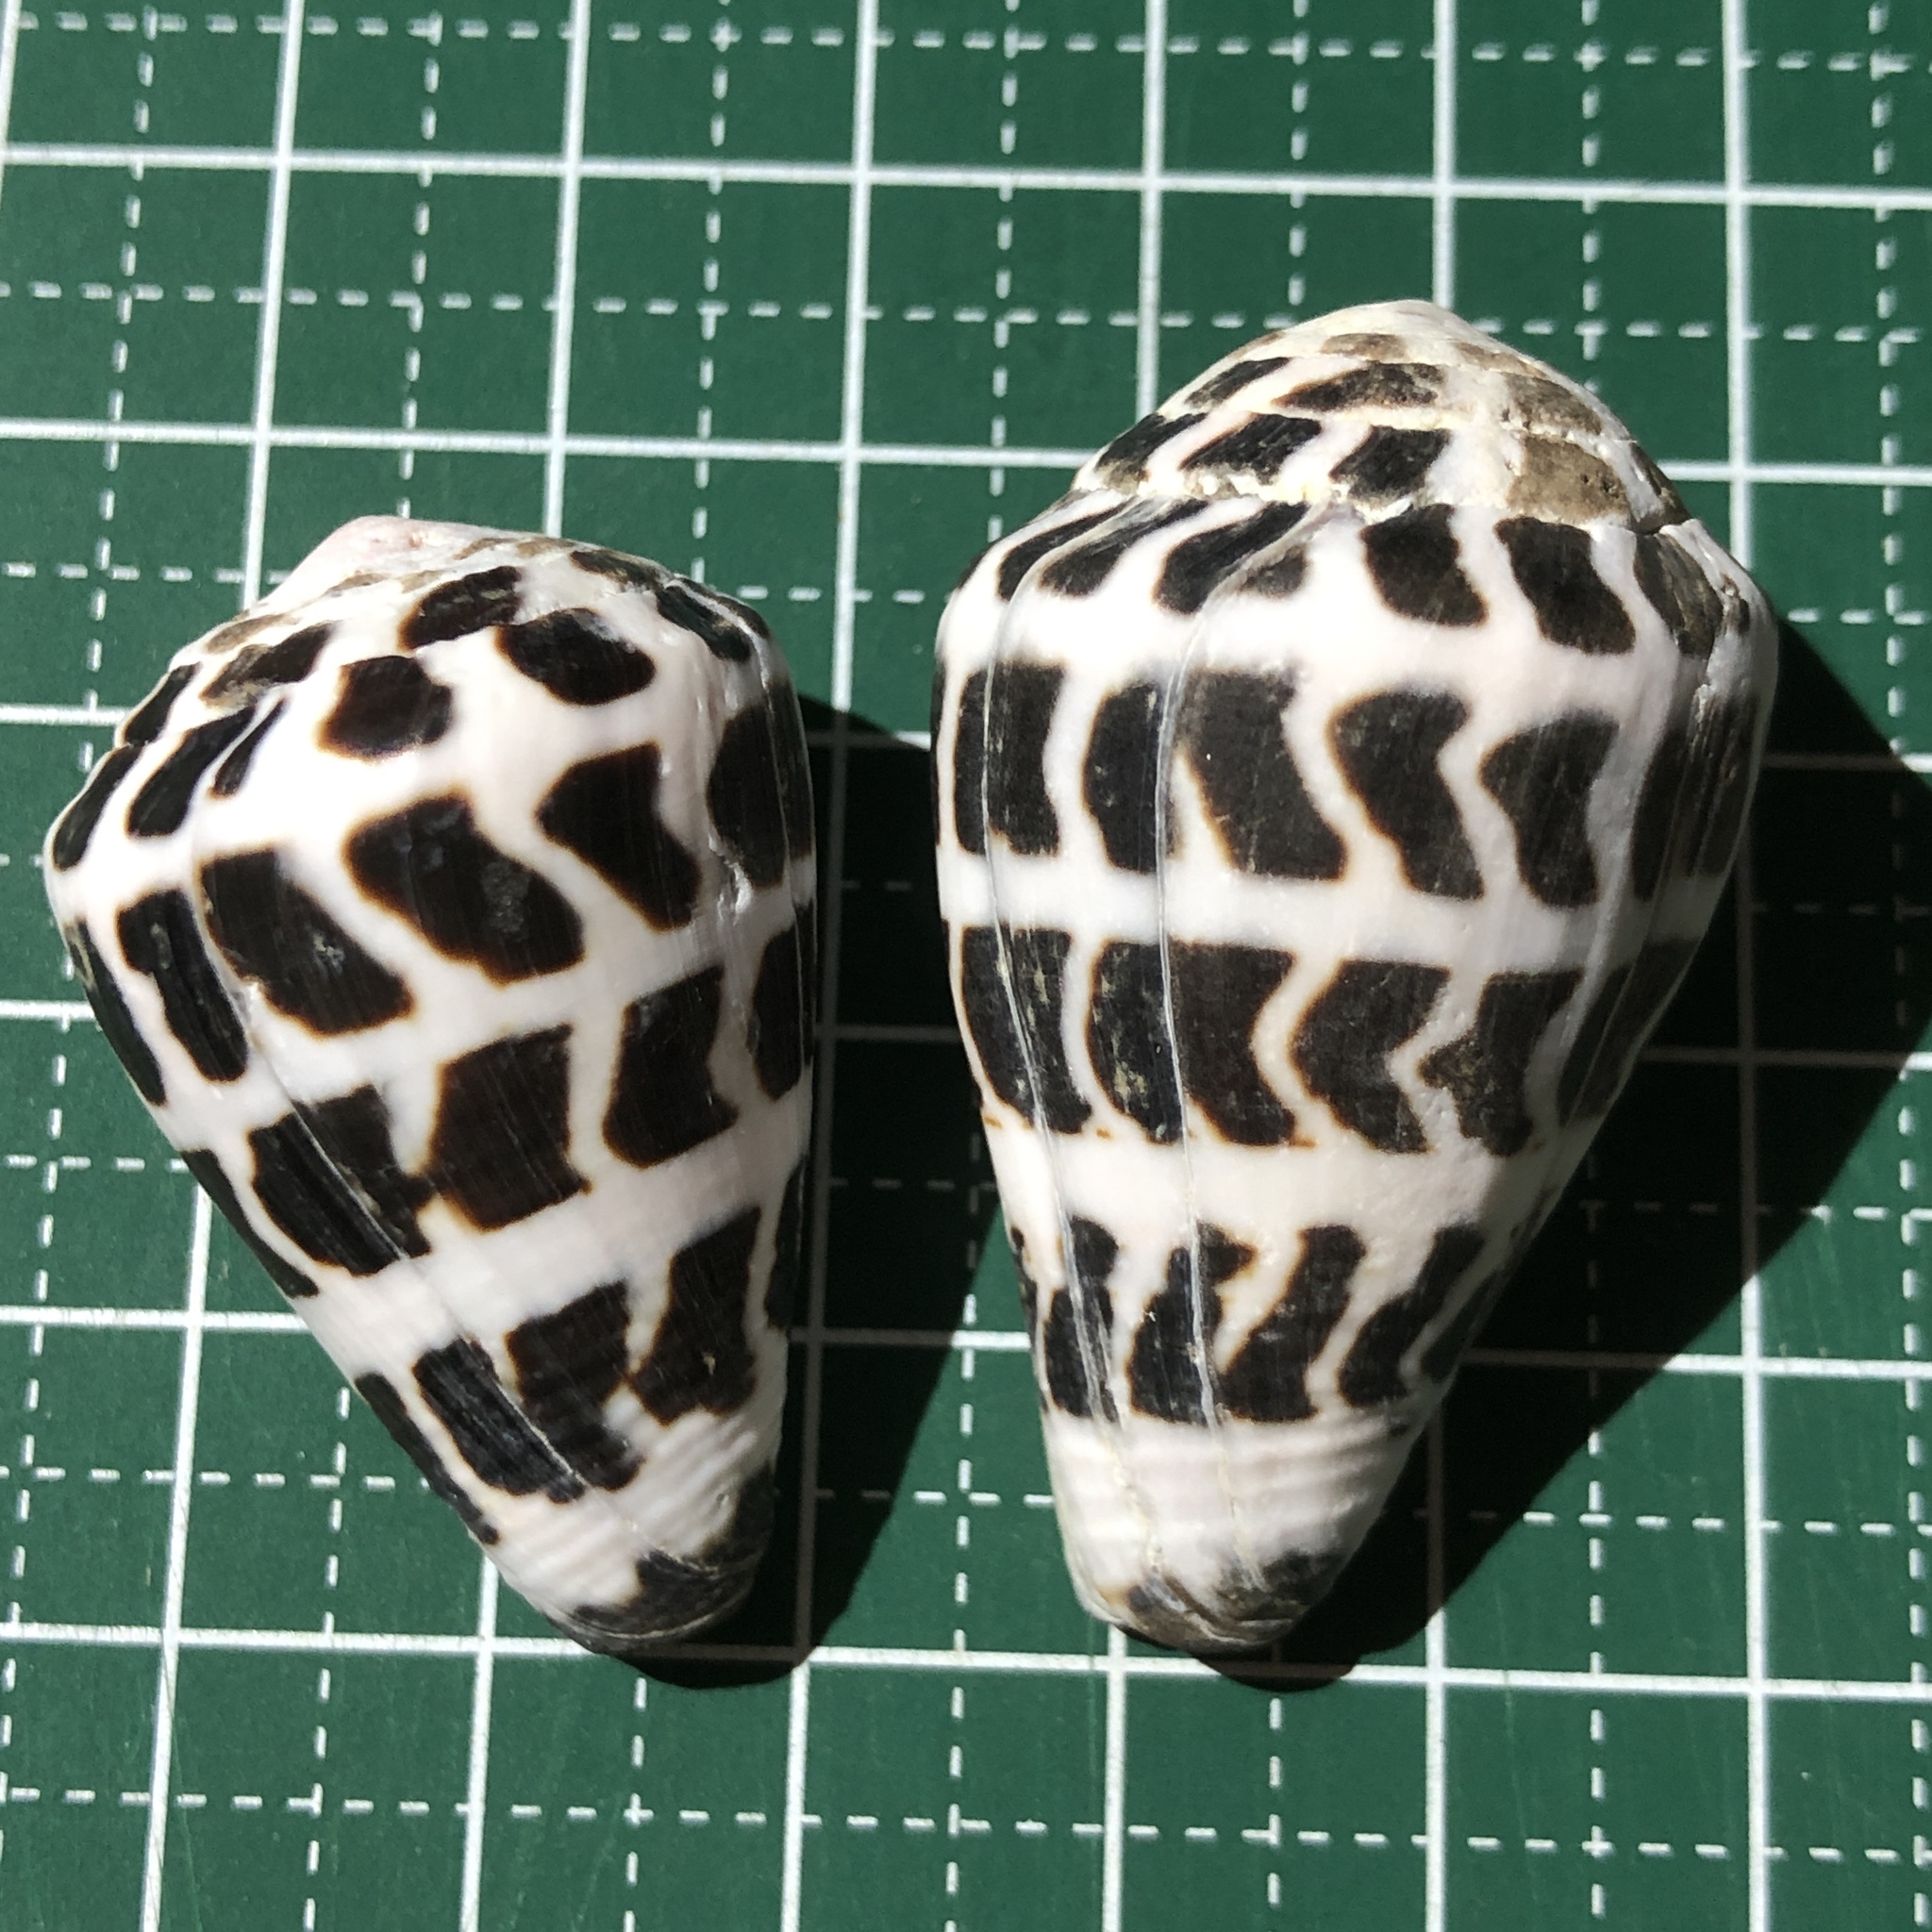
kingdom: Animalia
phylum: Mollusca
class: Gastropoda
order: Neogastropoda
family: Conidae
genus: Conus
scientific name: Conus ebraeus
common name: Hebrew cone
